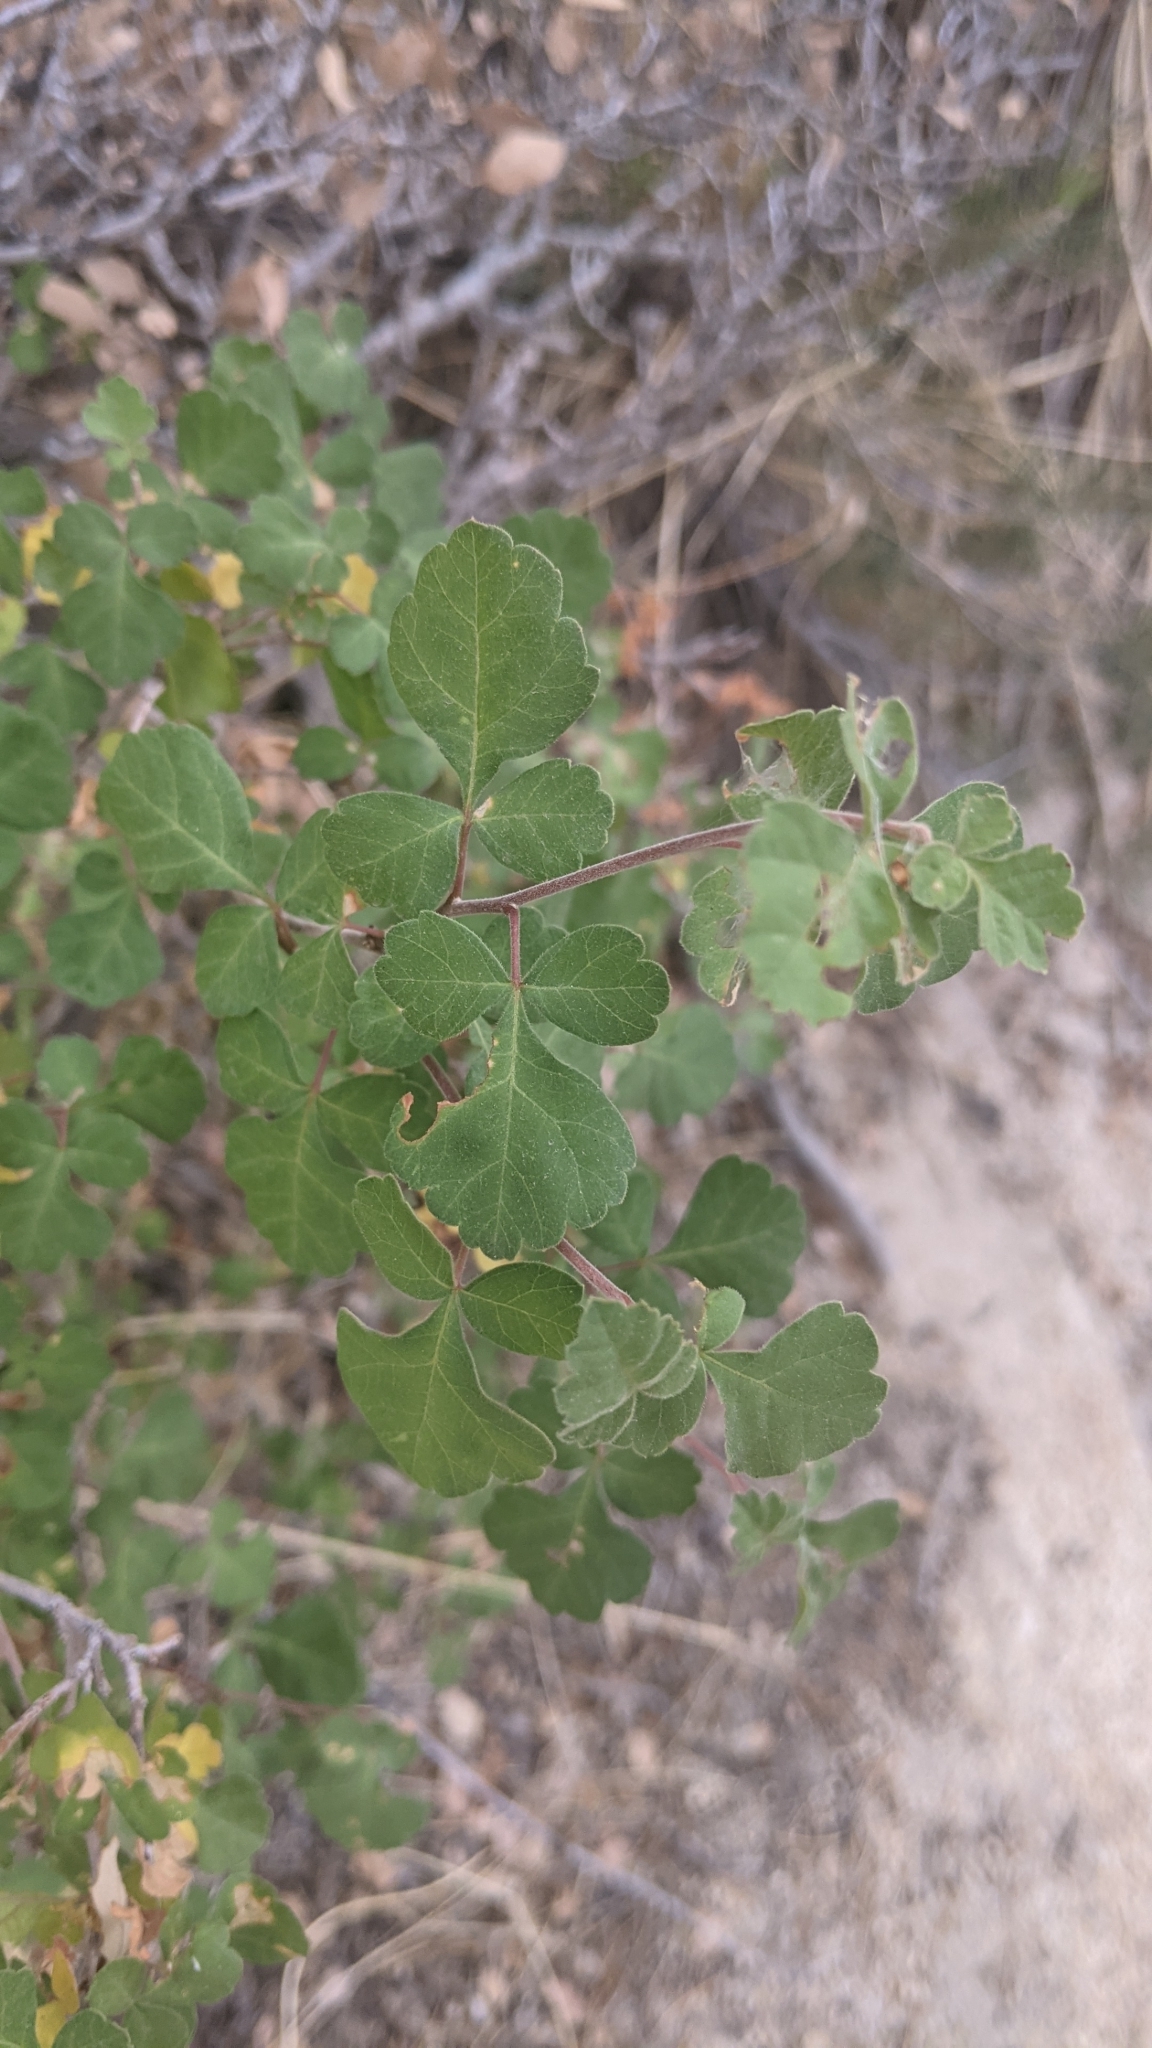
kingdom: Plantae
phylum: Tracheophyta
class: Magnoliopsida
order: Sapindales
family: Anacardiaceae
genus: Rhus
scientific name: Rhus aromatica
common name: Aromatic sumac
